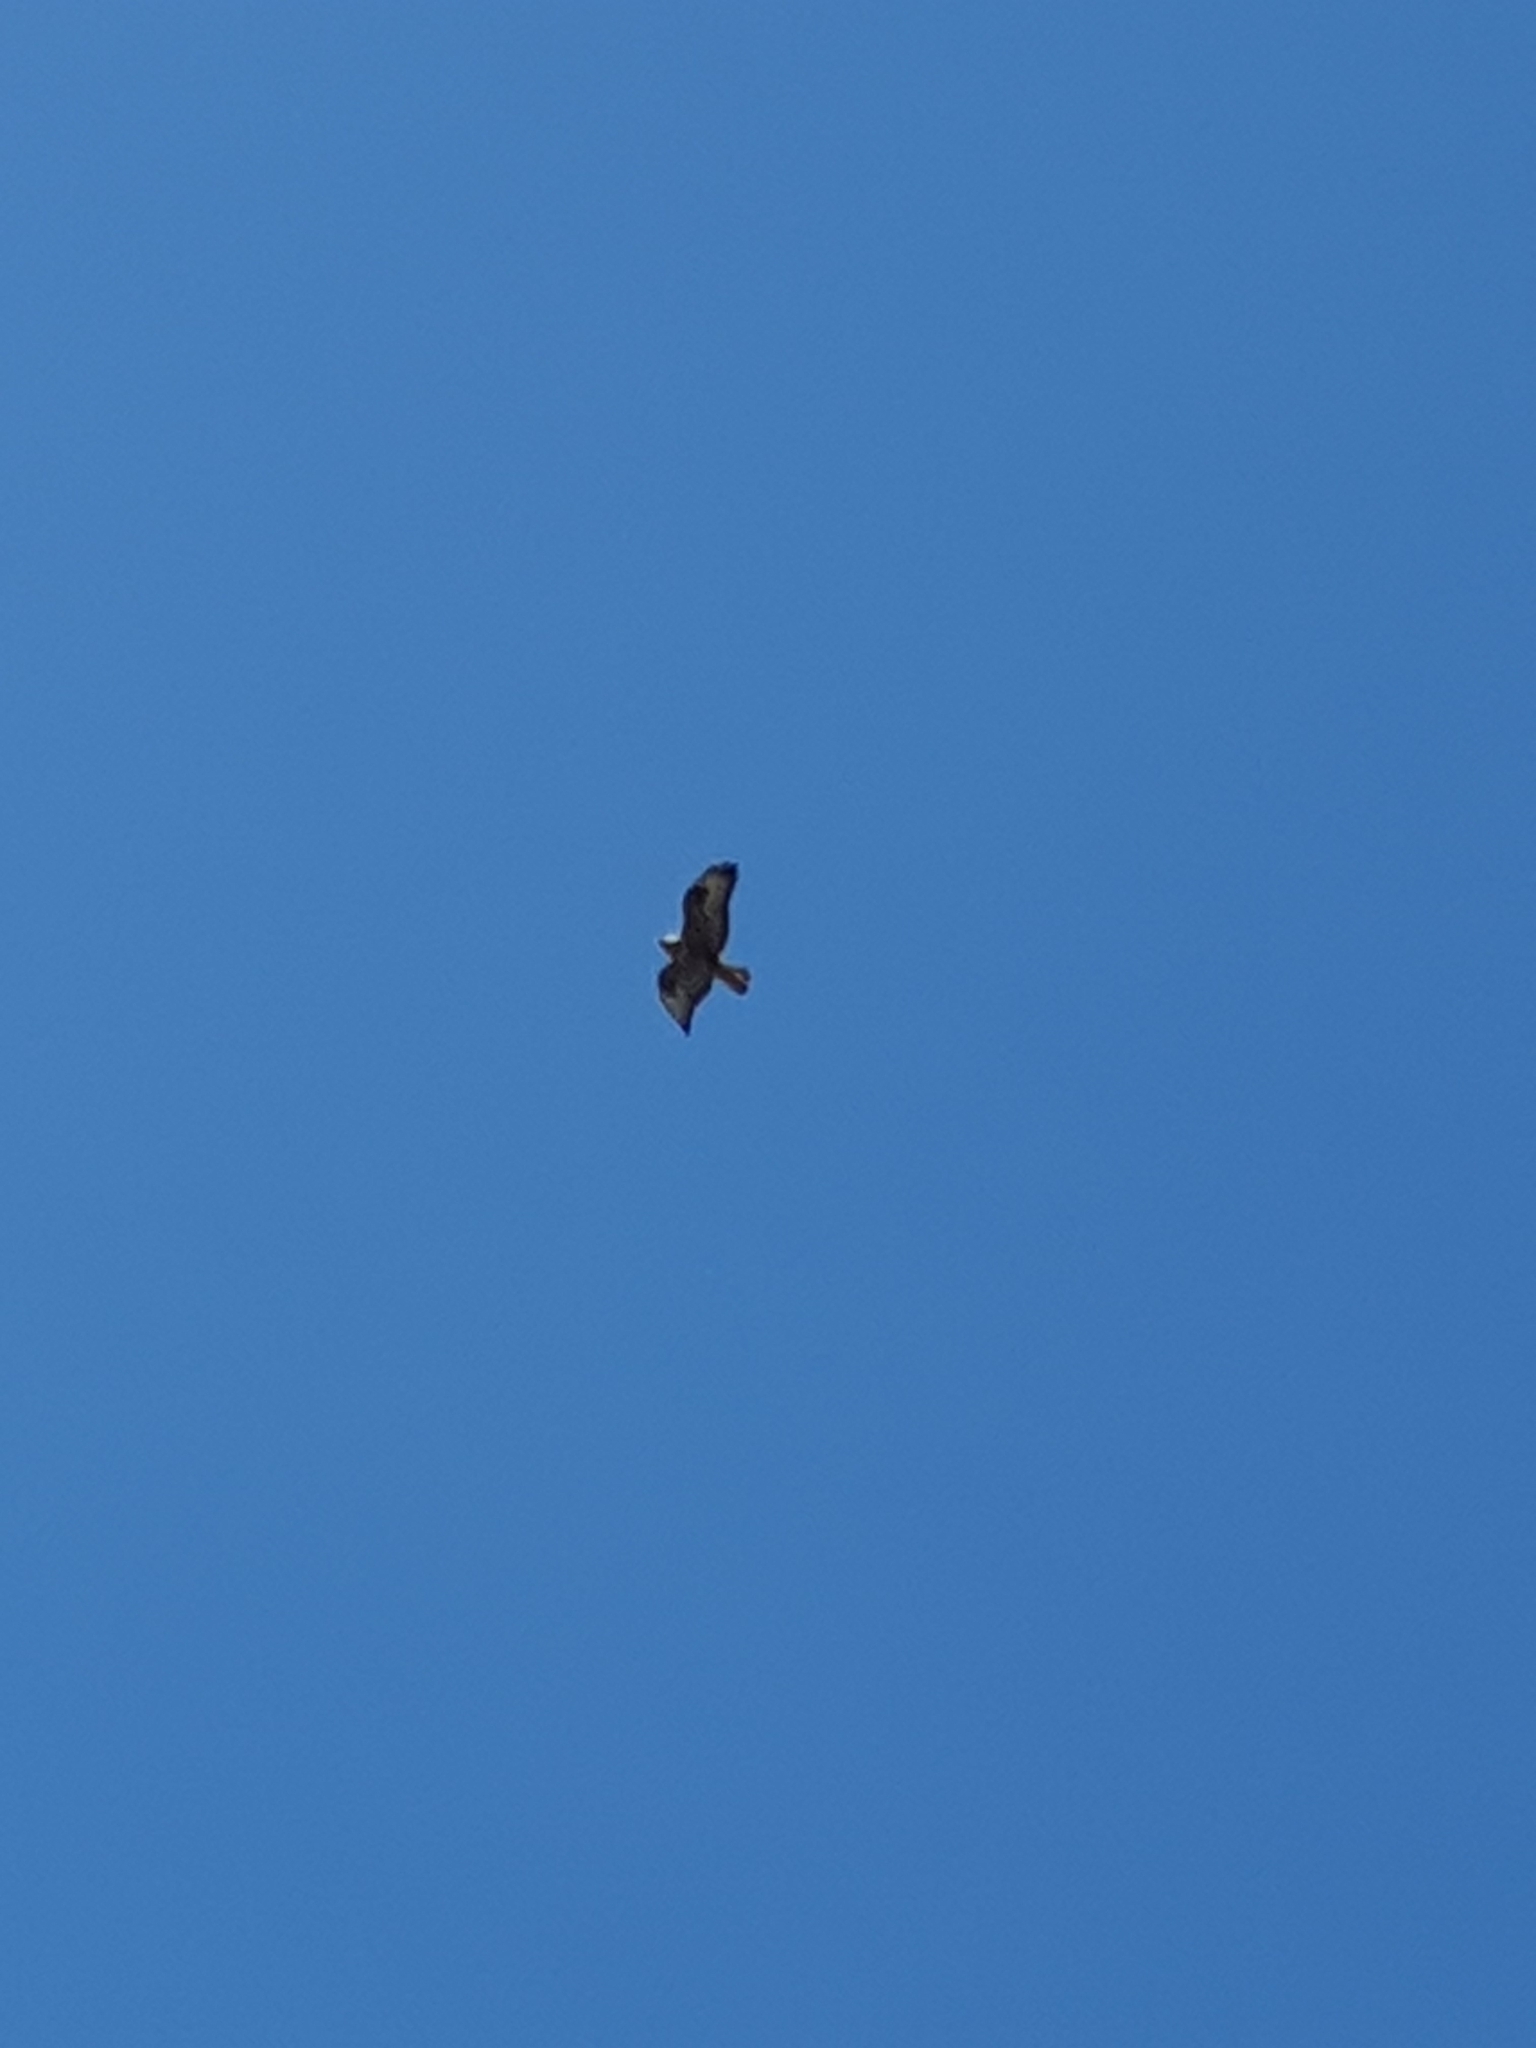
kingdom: Animalia
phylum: Chordata
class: Aves
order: Accipitriformes
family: Accipitridae
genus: Buteo
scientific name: Buteo rufinus
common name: Long-legged buzzard
